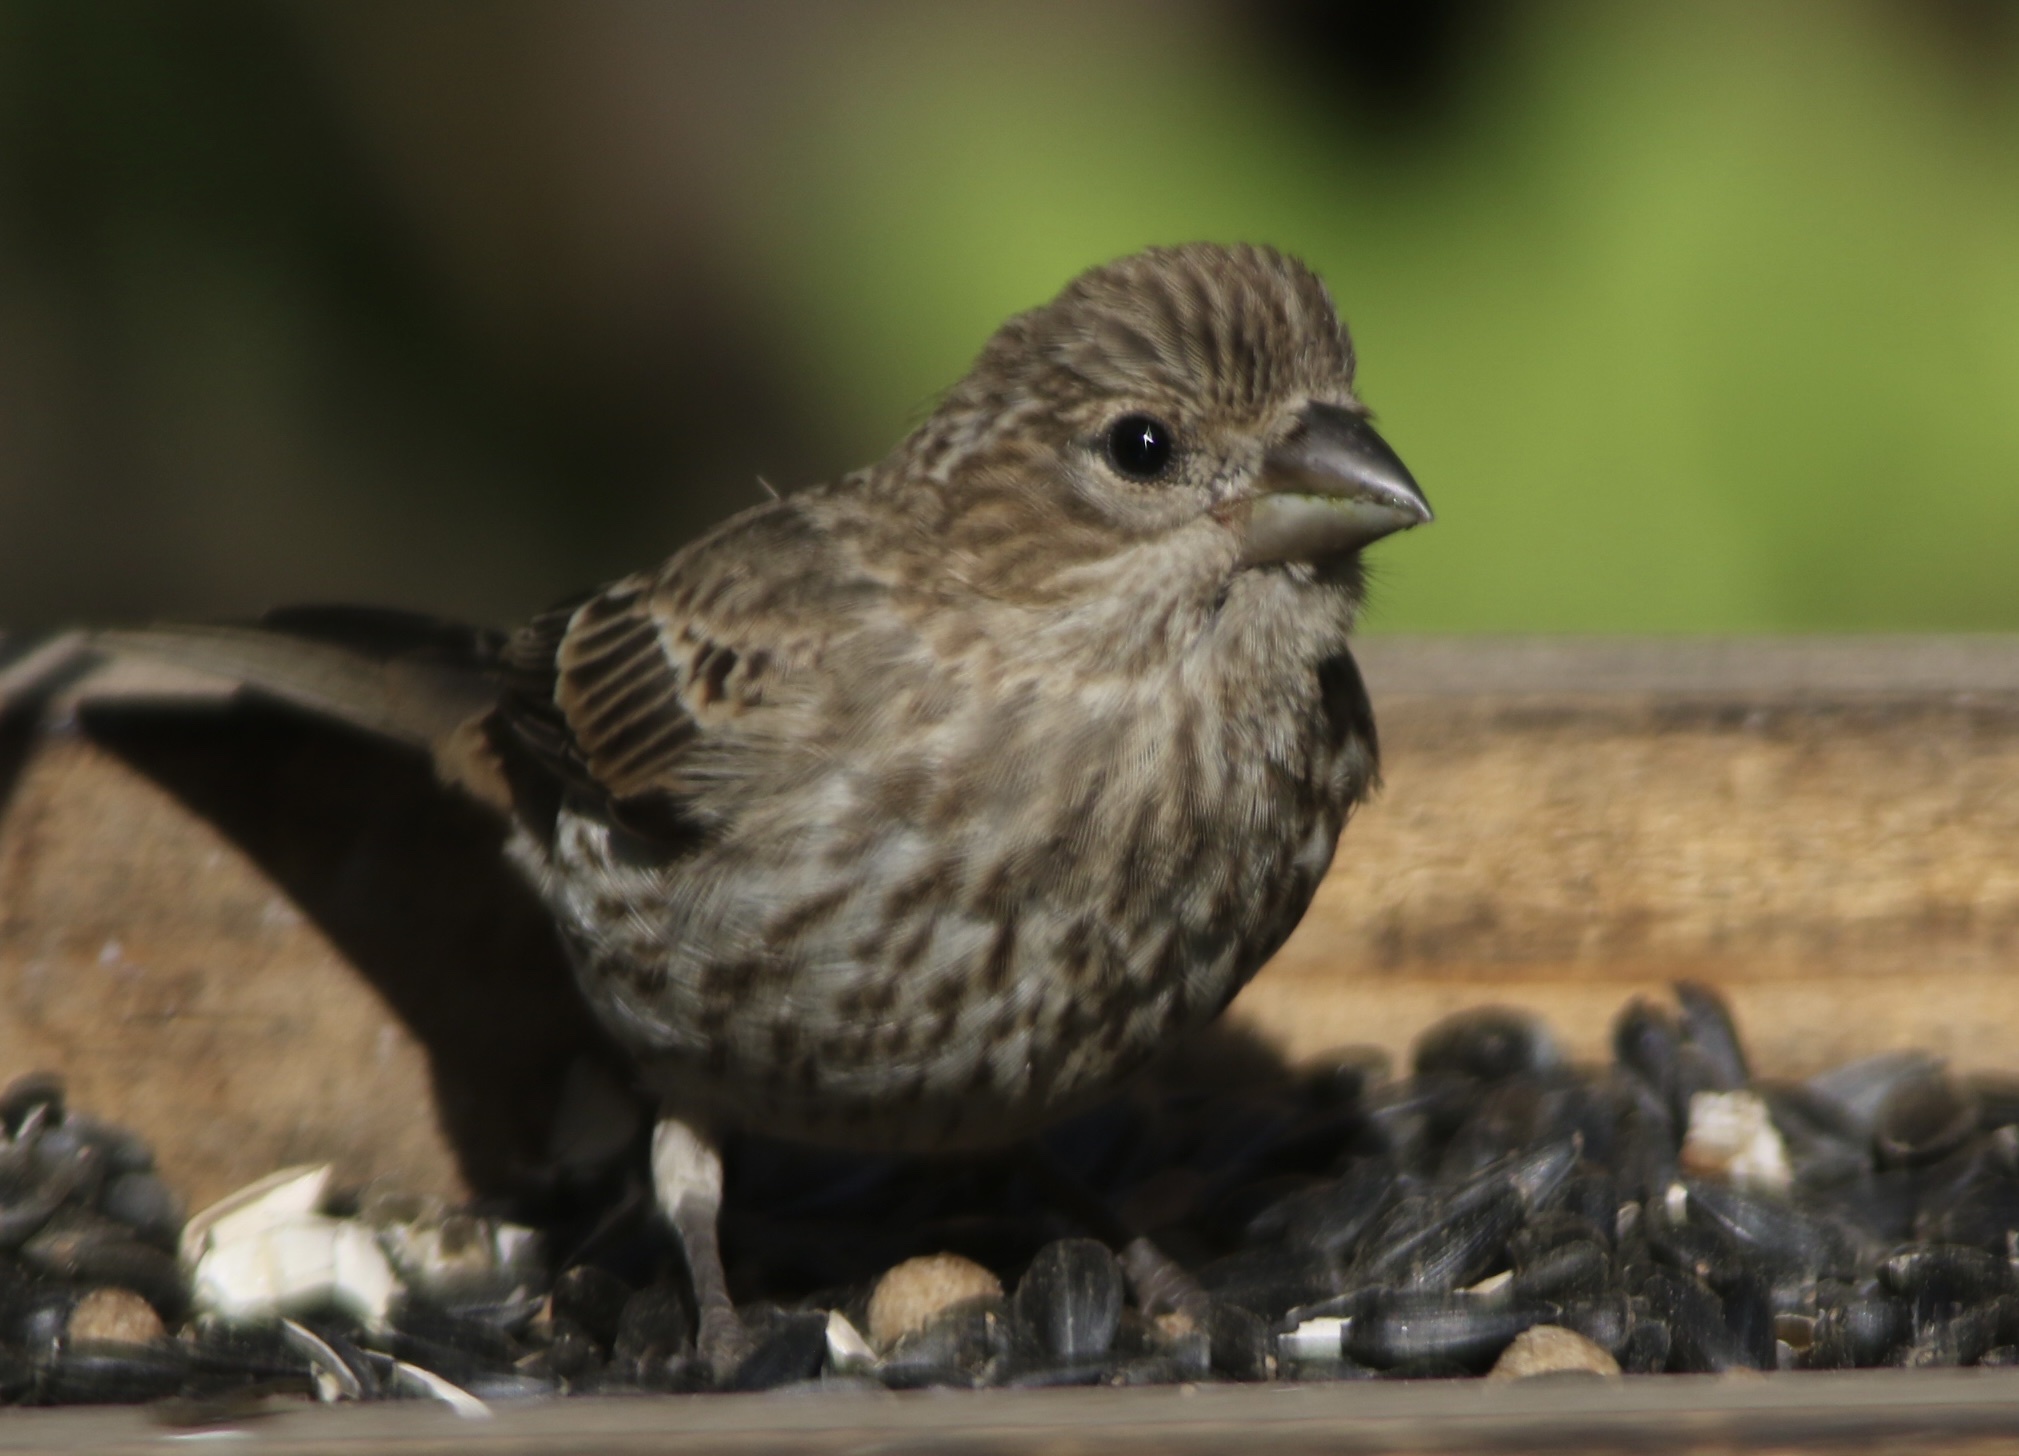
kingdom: Animalia
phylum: Chordata
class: Aves
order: Passeriformes
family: Fringillidae
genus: Haemorhous
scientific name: Haemorhous mexicanus
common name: House finch
